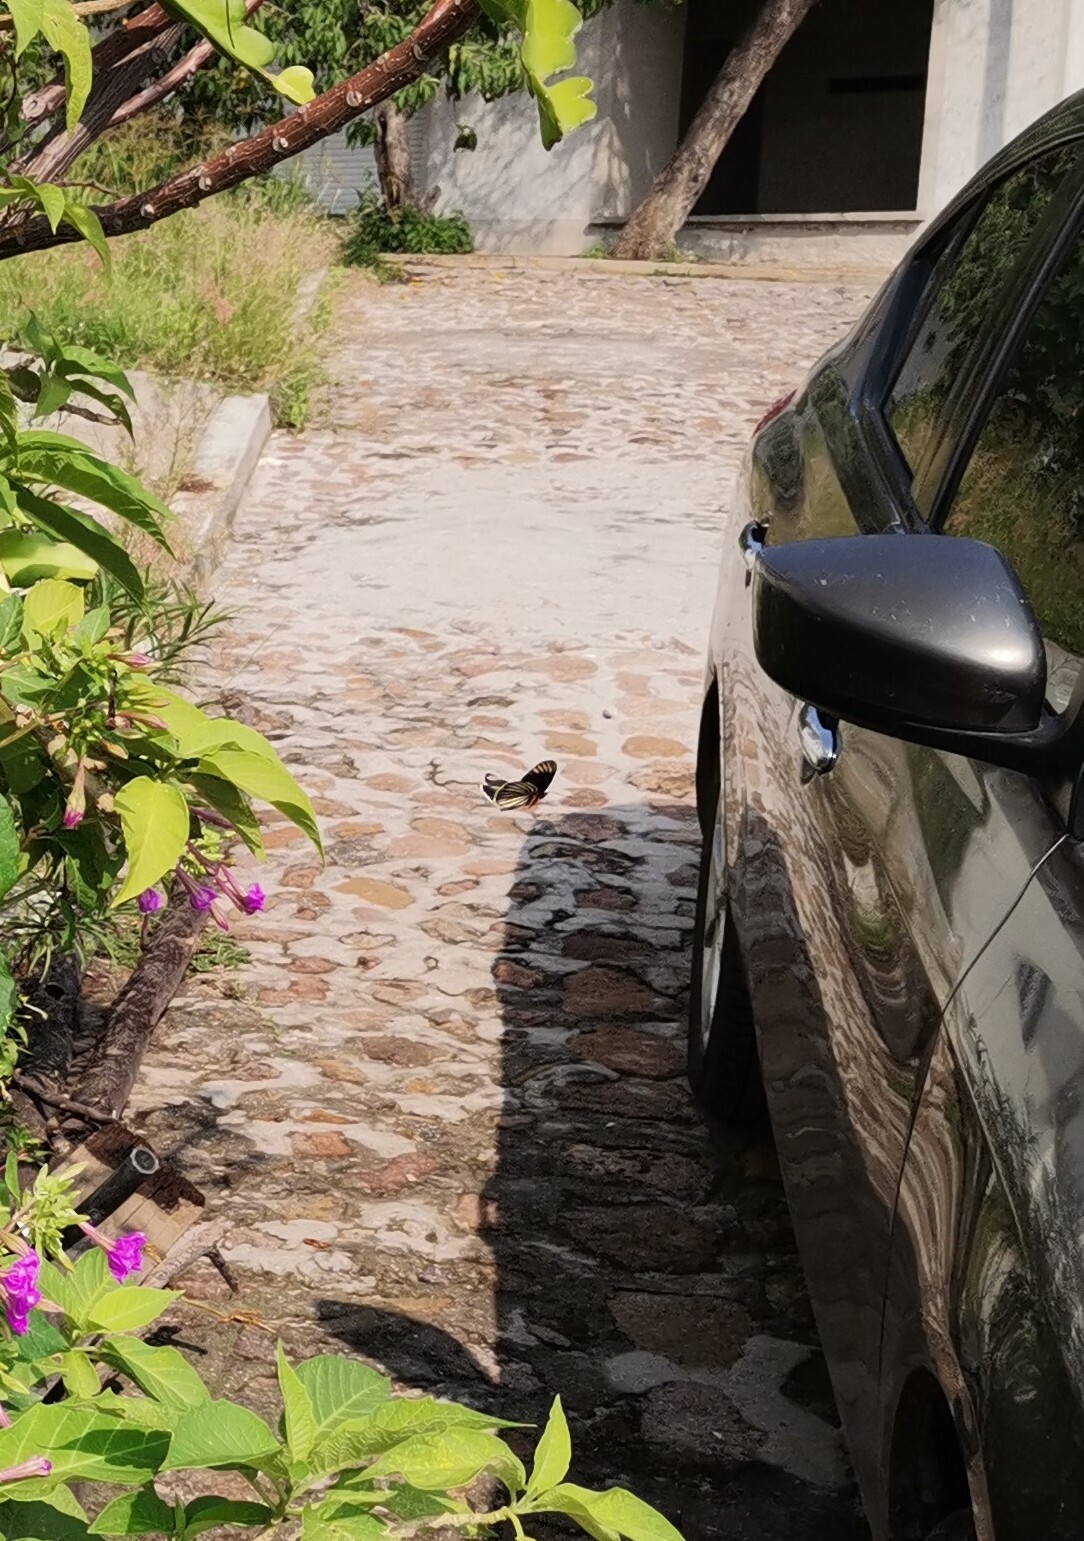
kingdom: Animalia
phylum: Arthropoda
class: Insecta
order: Lepidoptera
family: Nymphalidae
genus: Chlosyne
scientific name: Chlosyne ehrenbergii
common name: White-rayed patch
